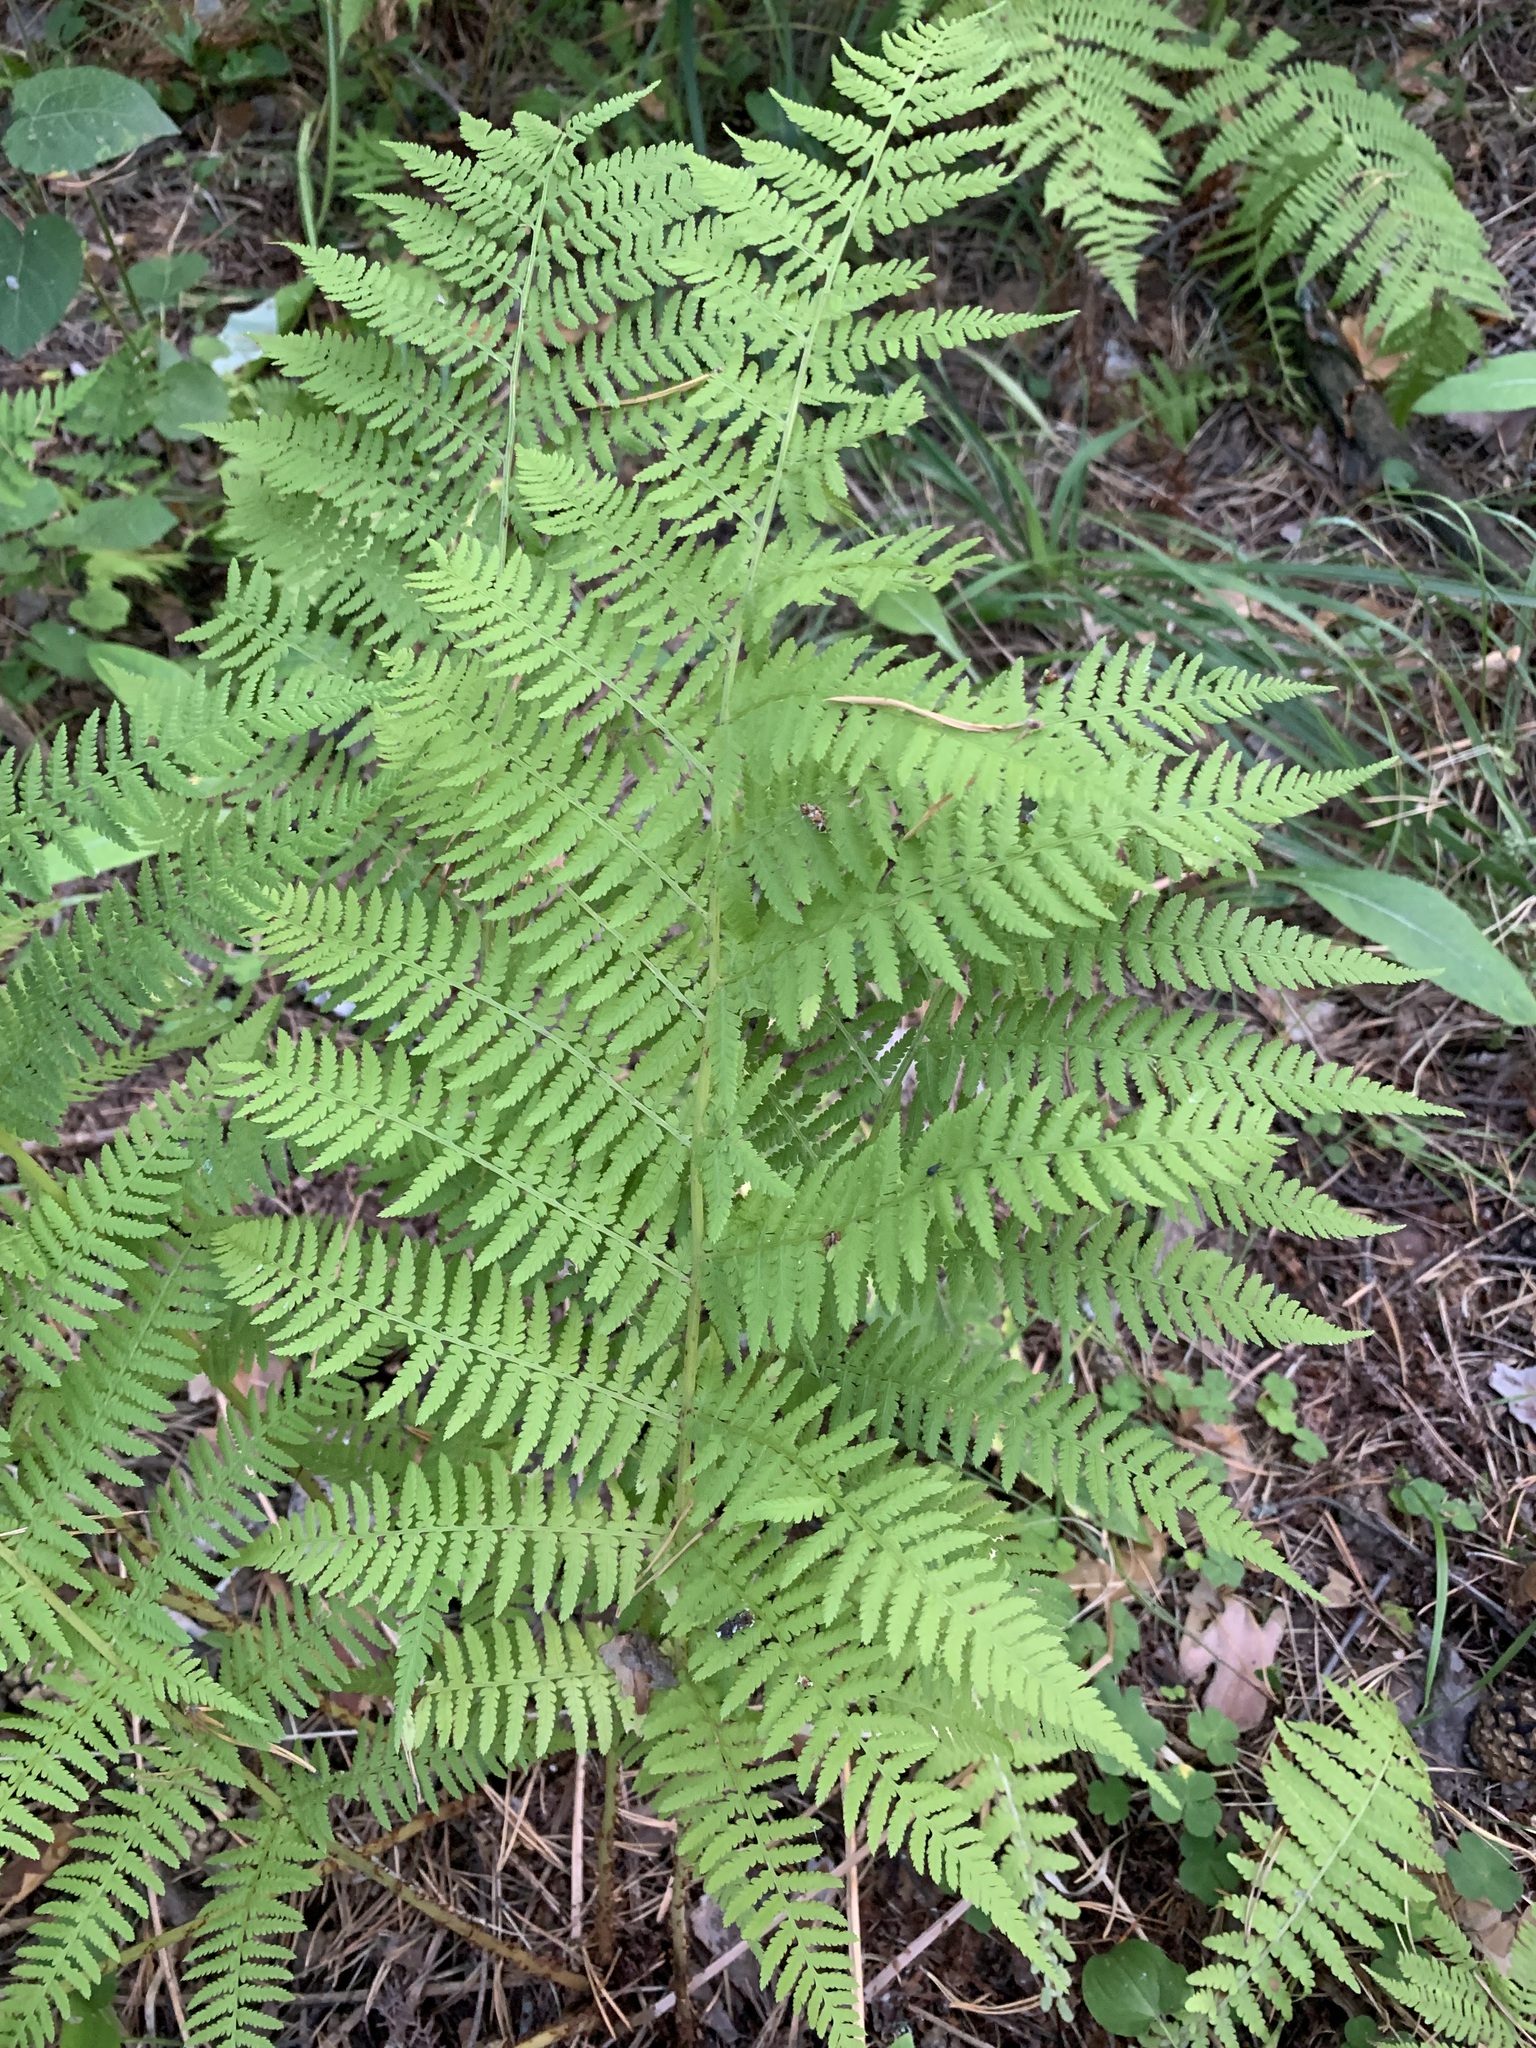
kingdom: Plantae
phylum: Tracheophyta
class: Polypodiopsida
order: Polypodiales
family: Athyriaceae
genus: Athyrium
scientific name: Athyrium filix-femina
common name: Lady fern
